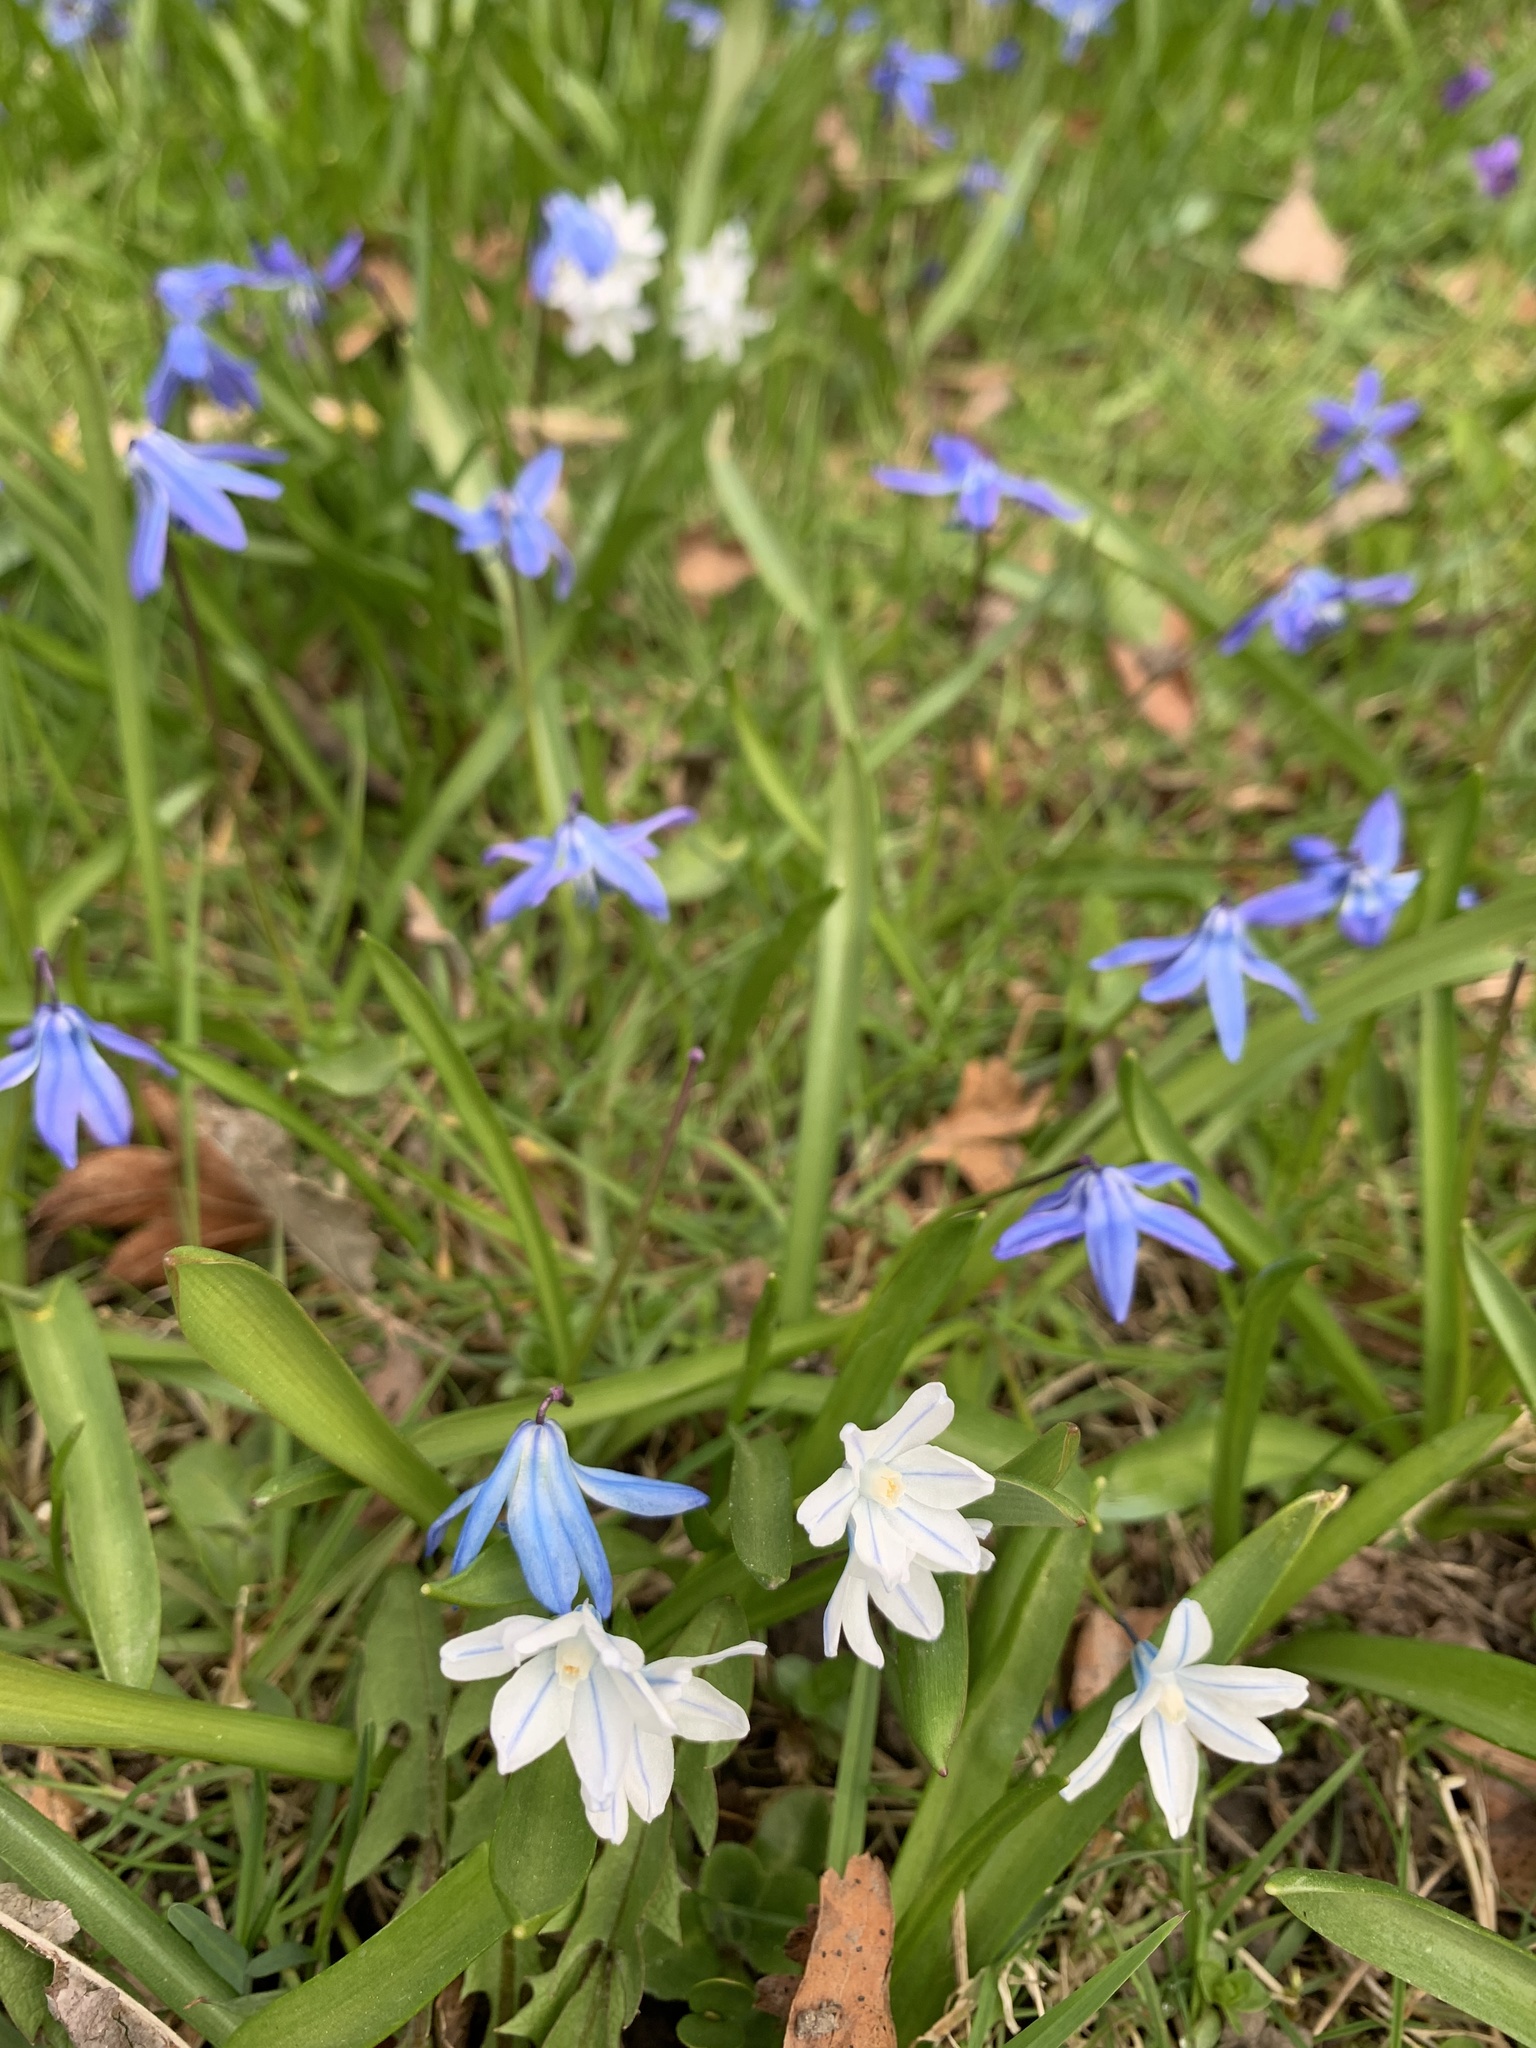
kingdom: Plantae
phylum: Tracheophyta
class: Liliopsida
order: Asparagales
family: Asparagaceae
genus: Scilla
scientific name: Scilla siberica
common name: Siberian squill
